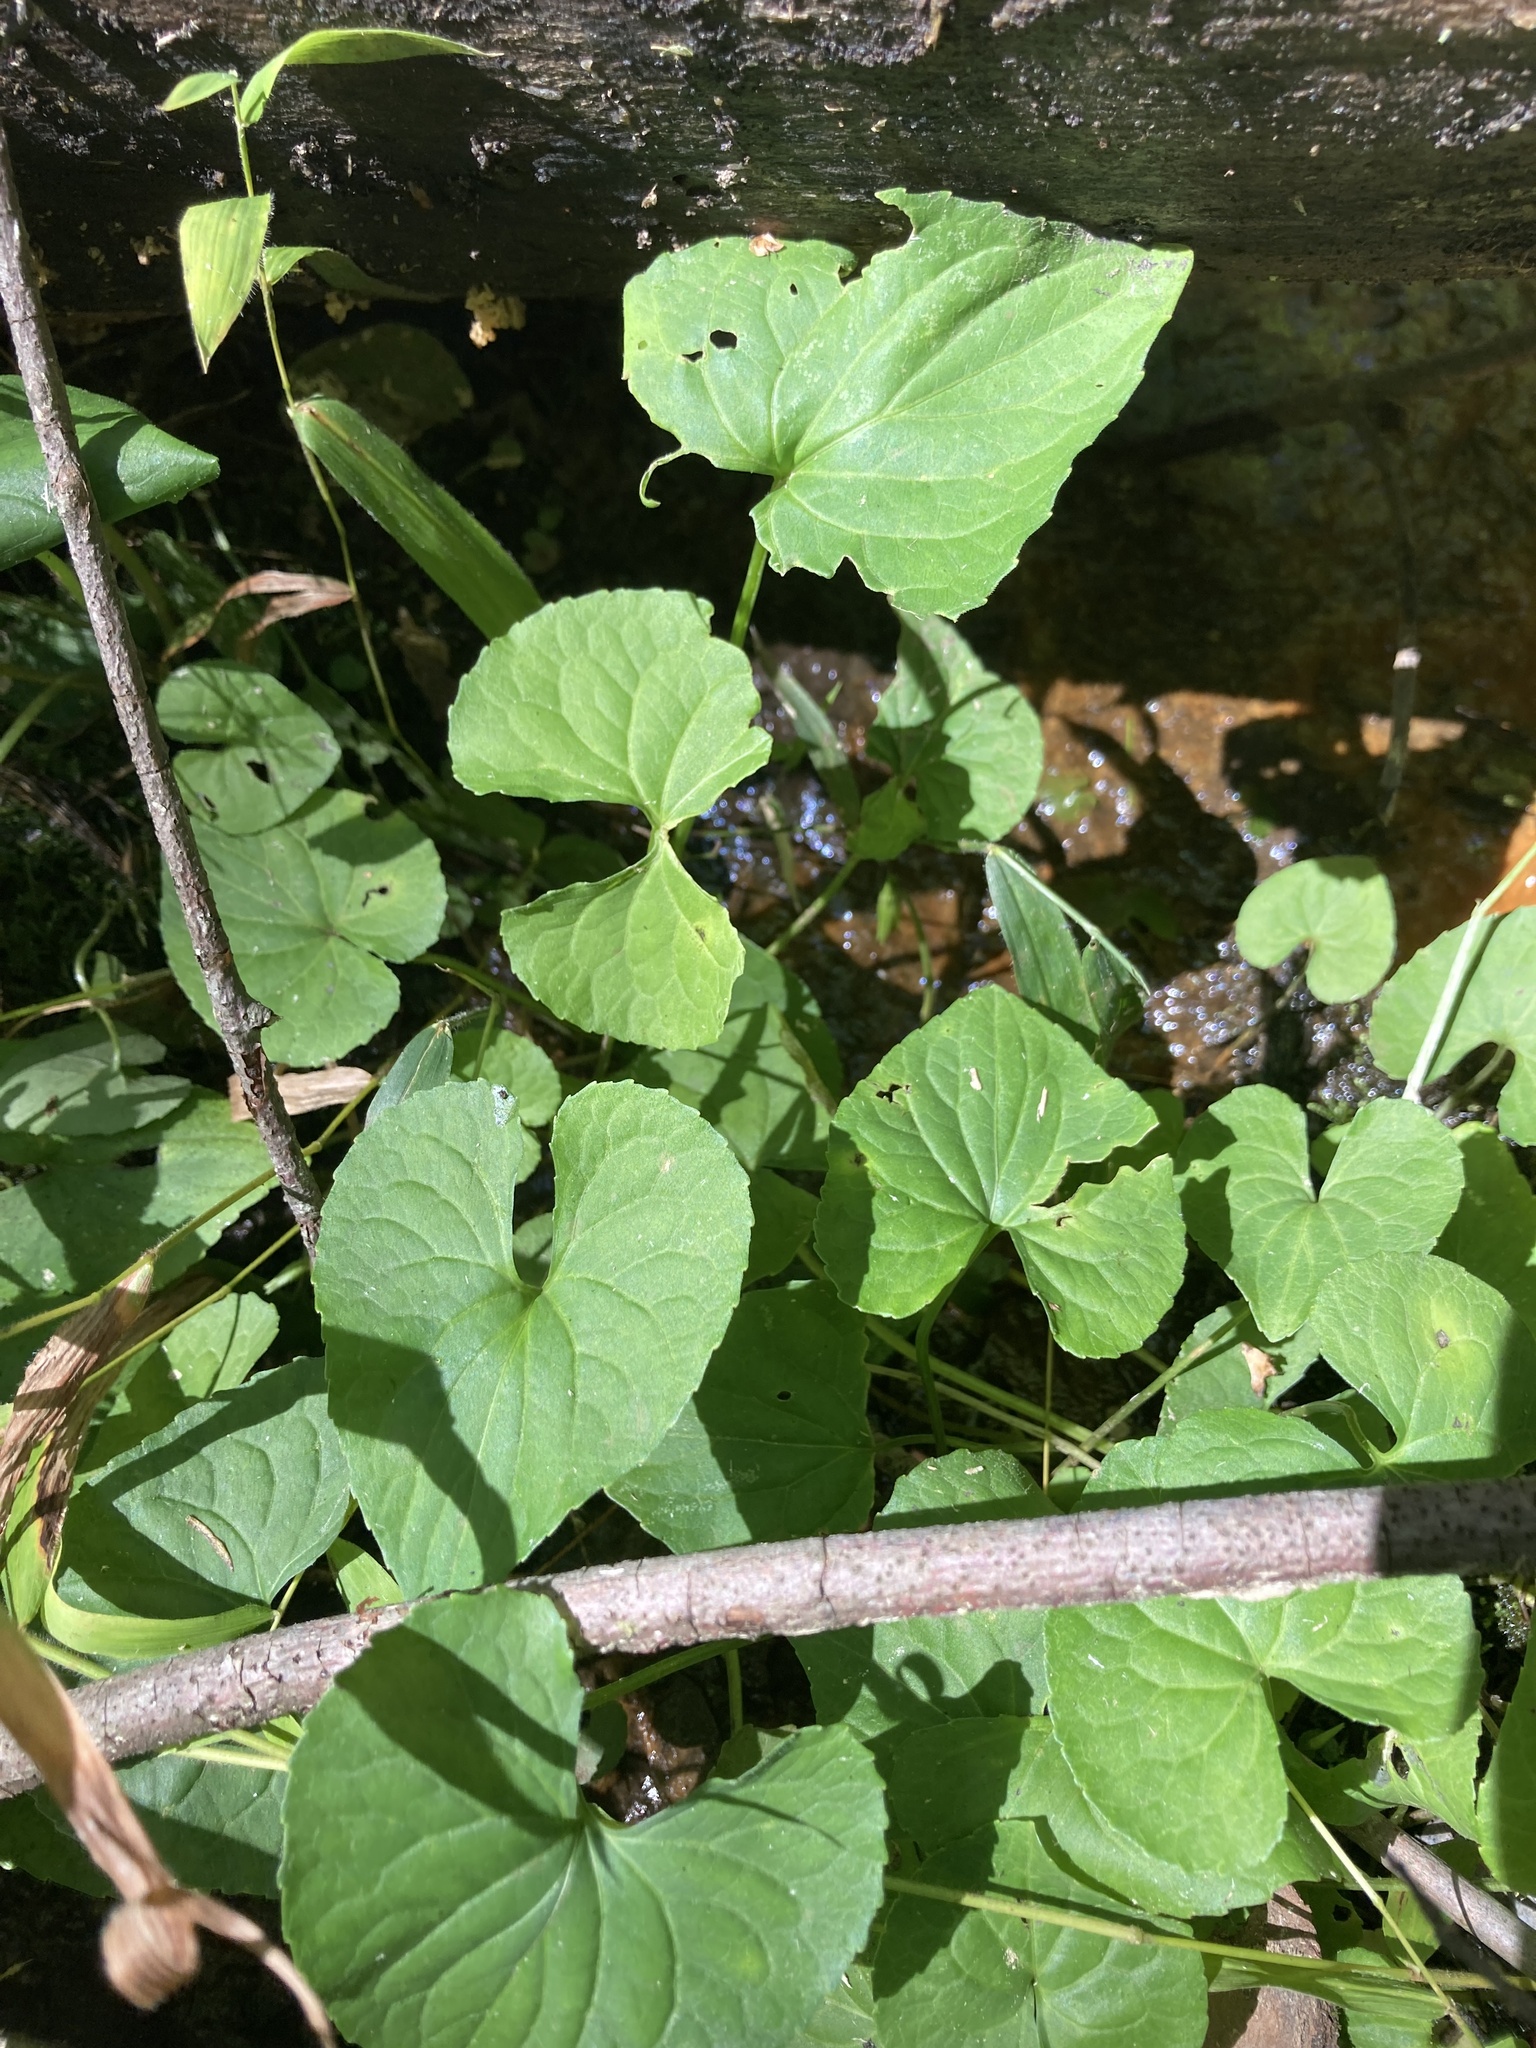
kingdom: Plantae
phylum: Tracheophyta
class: Magnoliopsida
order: Malpighiales
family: Violaceae
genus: Viola
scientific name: Viola sororia
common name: Dooryard violet
